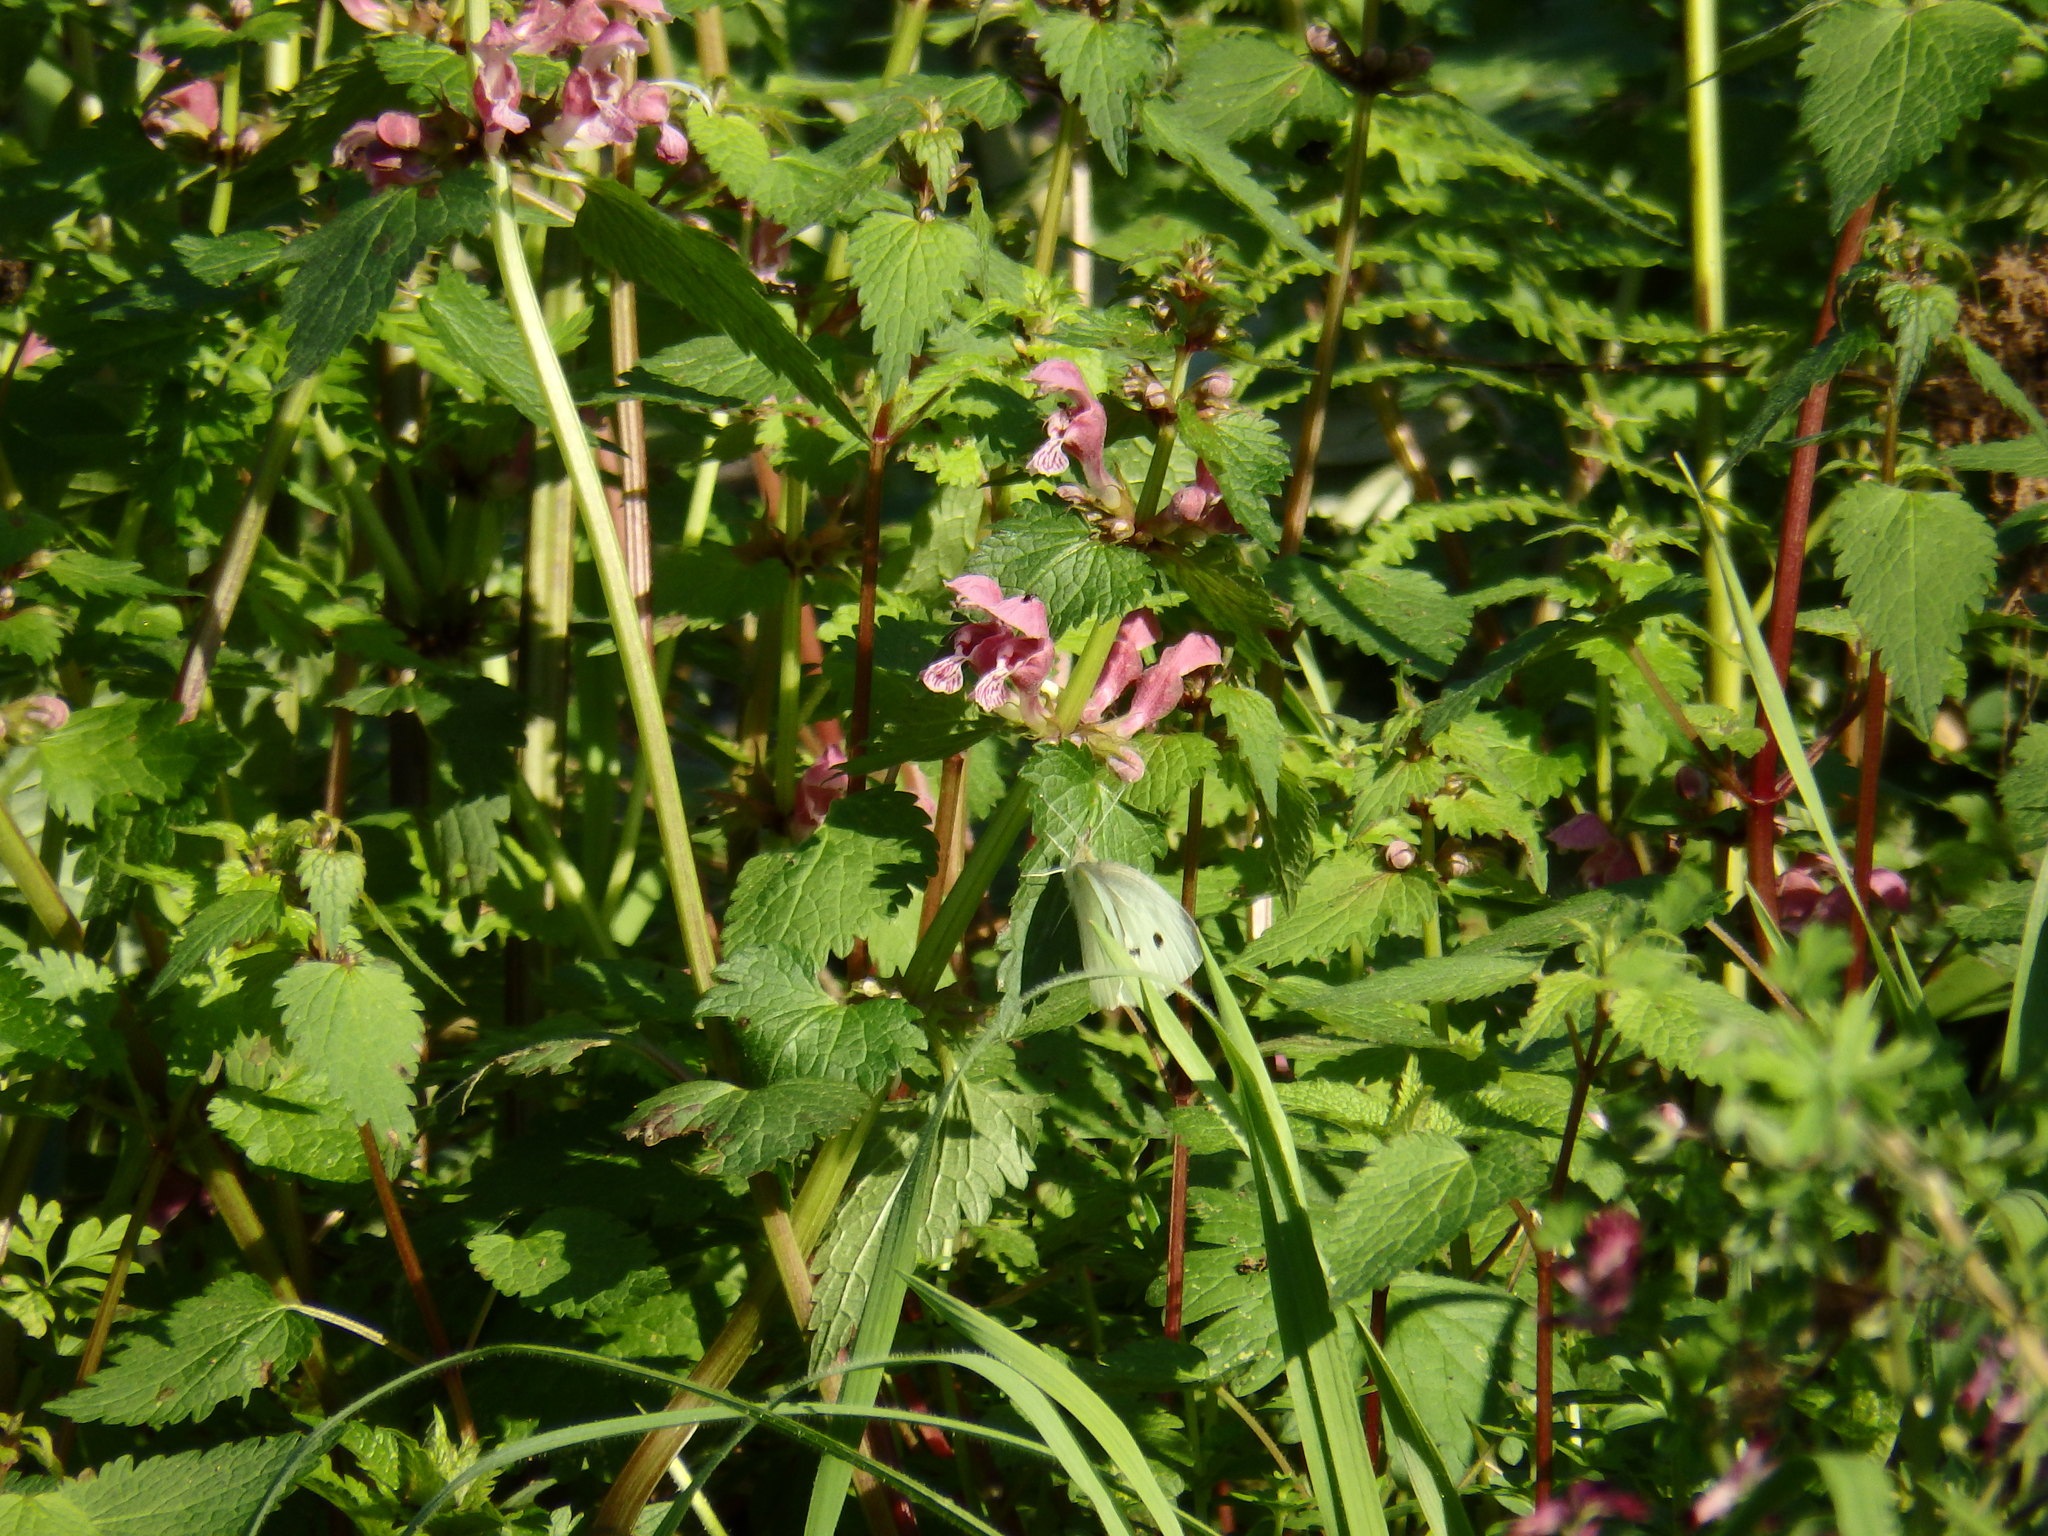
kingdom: Plantae
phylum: Tracheophyta
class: Magnoliopsida
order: Lamiales
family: Lamiaceae
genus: Lamium
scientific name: Lamium maculatum
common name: Spotted dead-nettle
